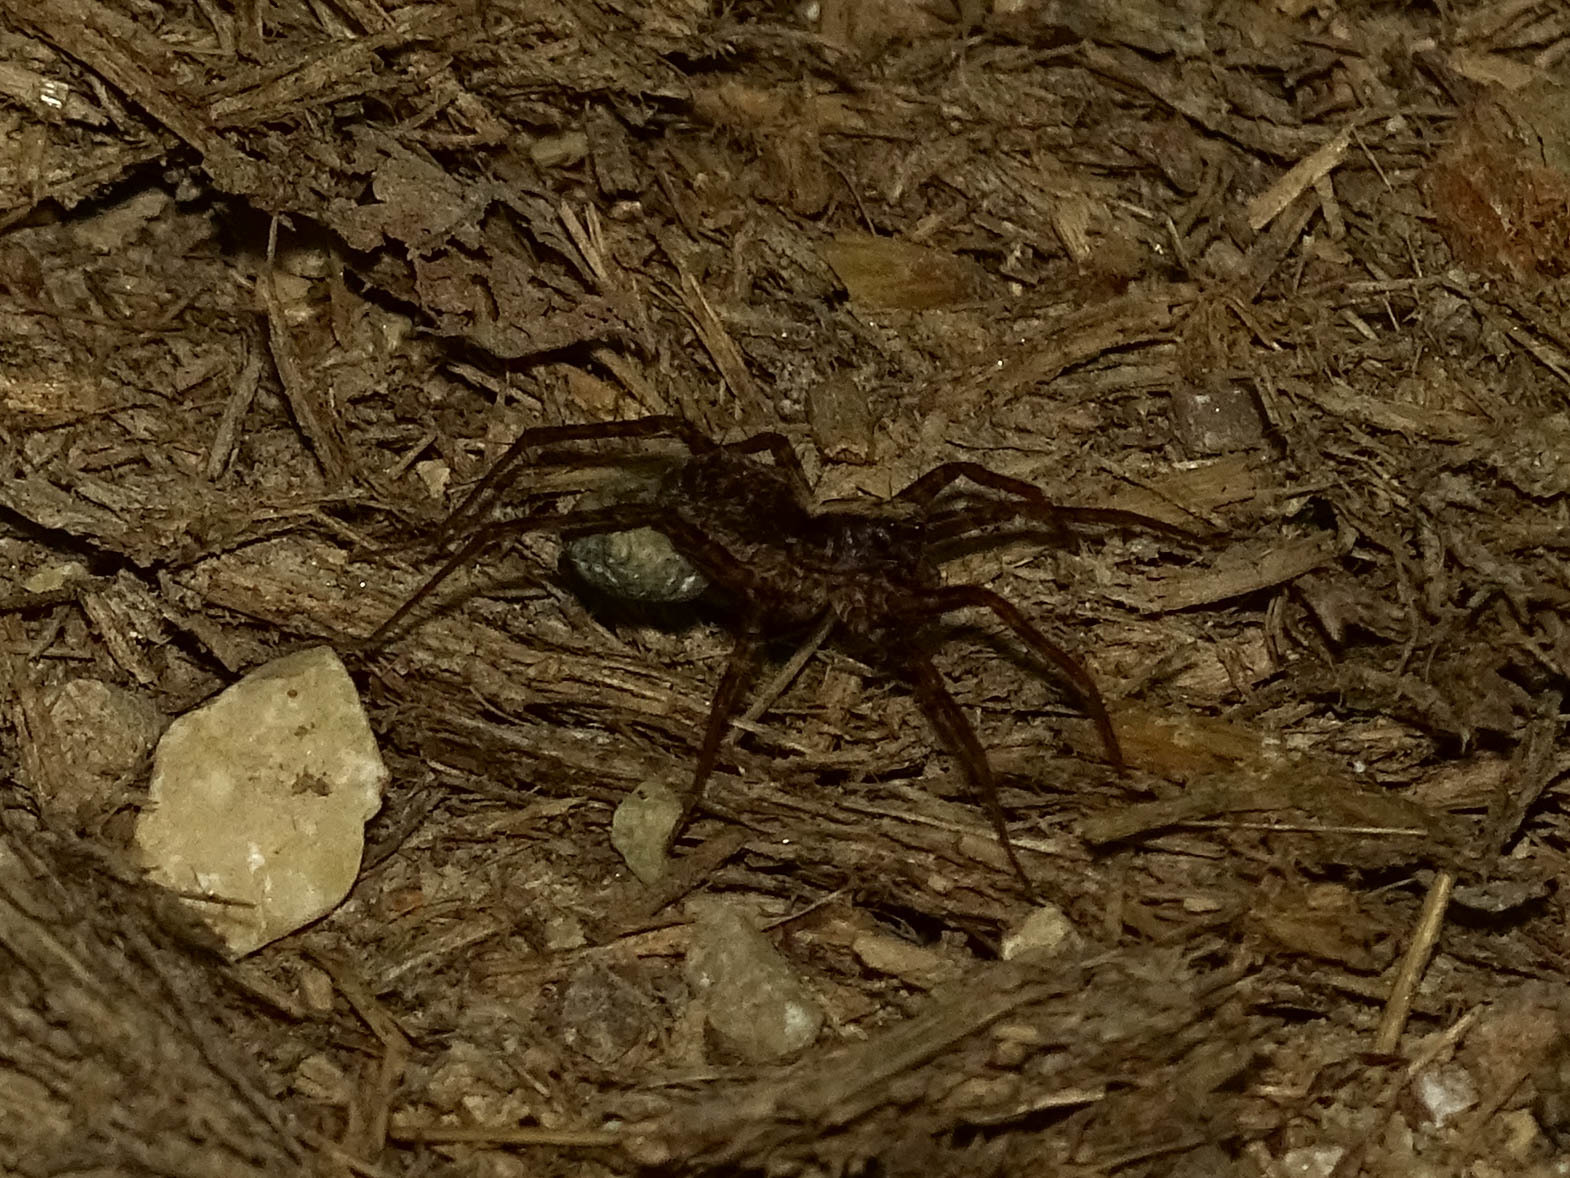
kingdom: Animalia
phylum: Arthropoda
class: Arachnida
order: Araneae
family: Lycosidae
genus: Pardosa
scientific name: Pardosa
